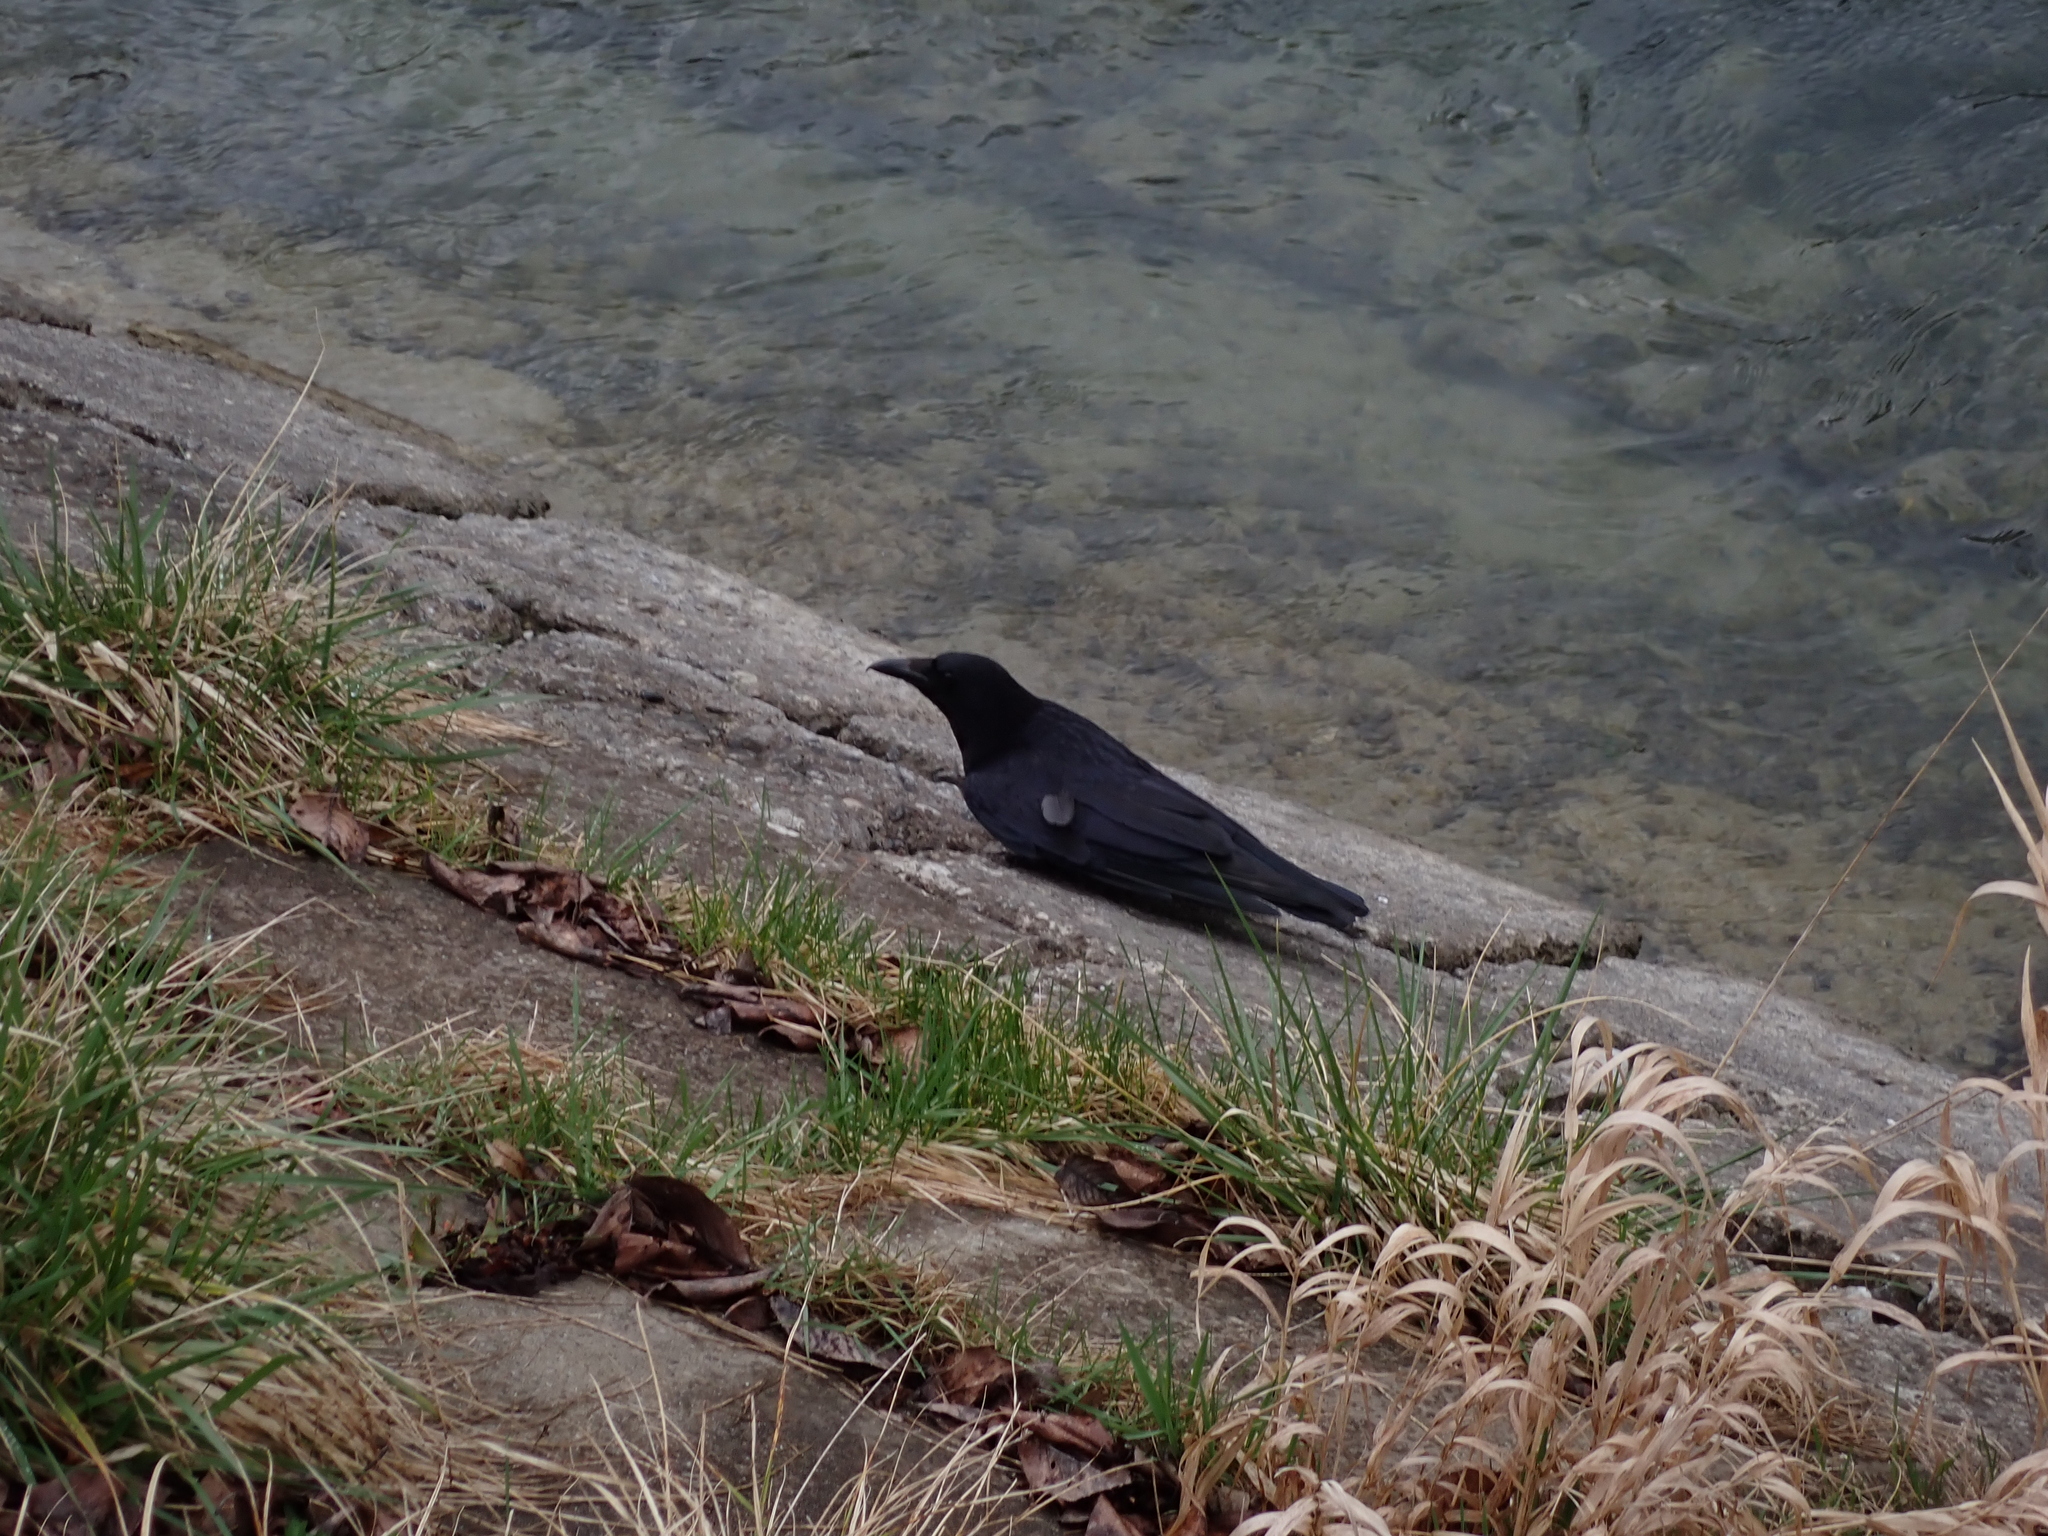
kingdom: Animalia
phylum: Chordata
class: Aves
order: Passeriformes
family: Corvidae
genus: Corvus
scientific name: Corvus corone
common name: Carrion crow
